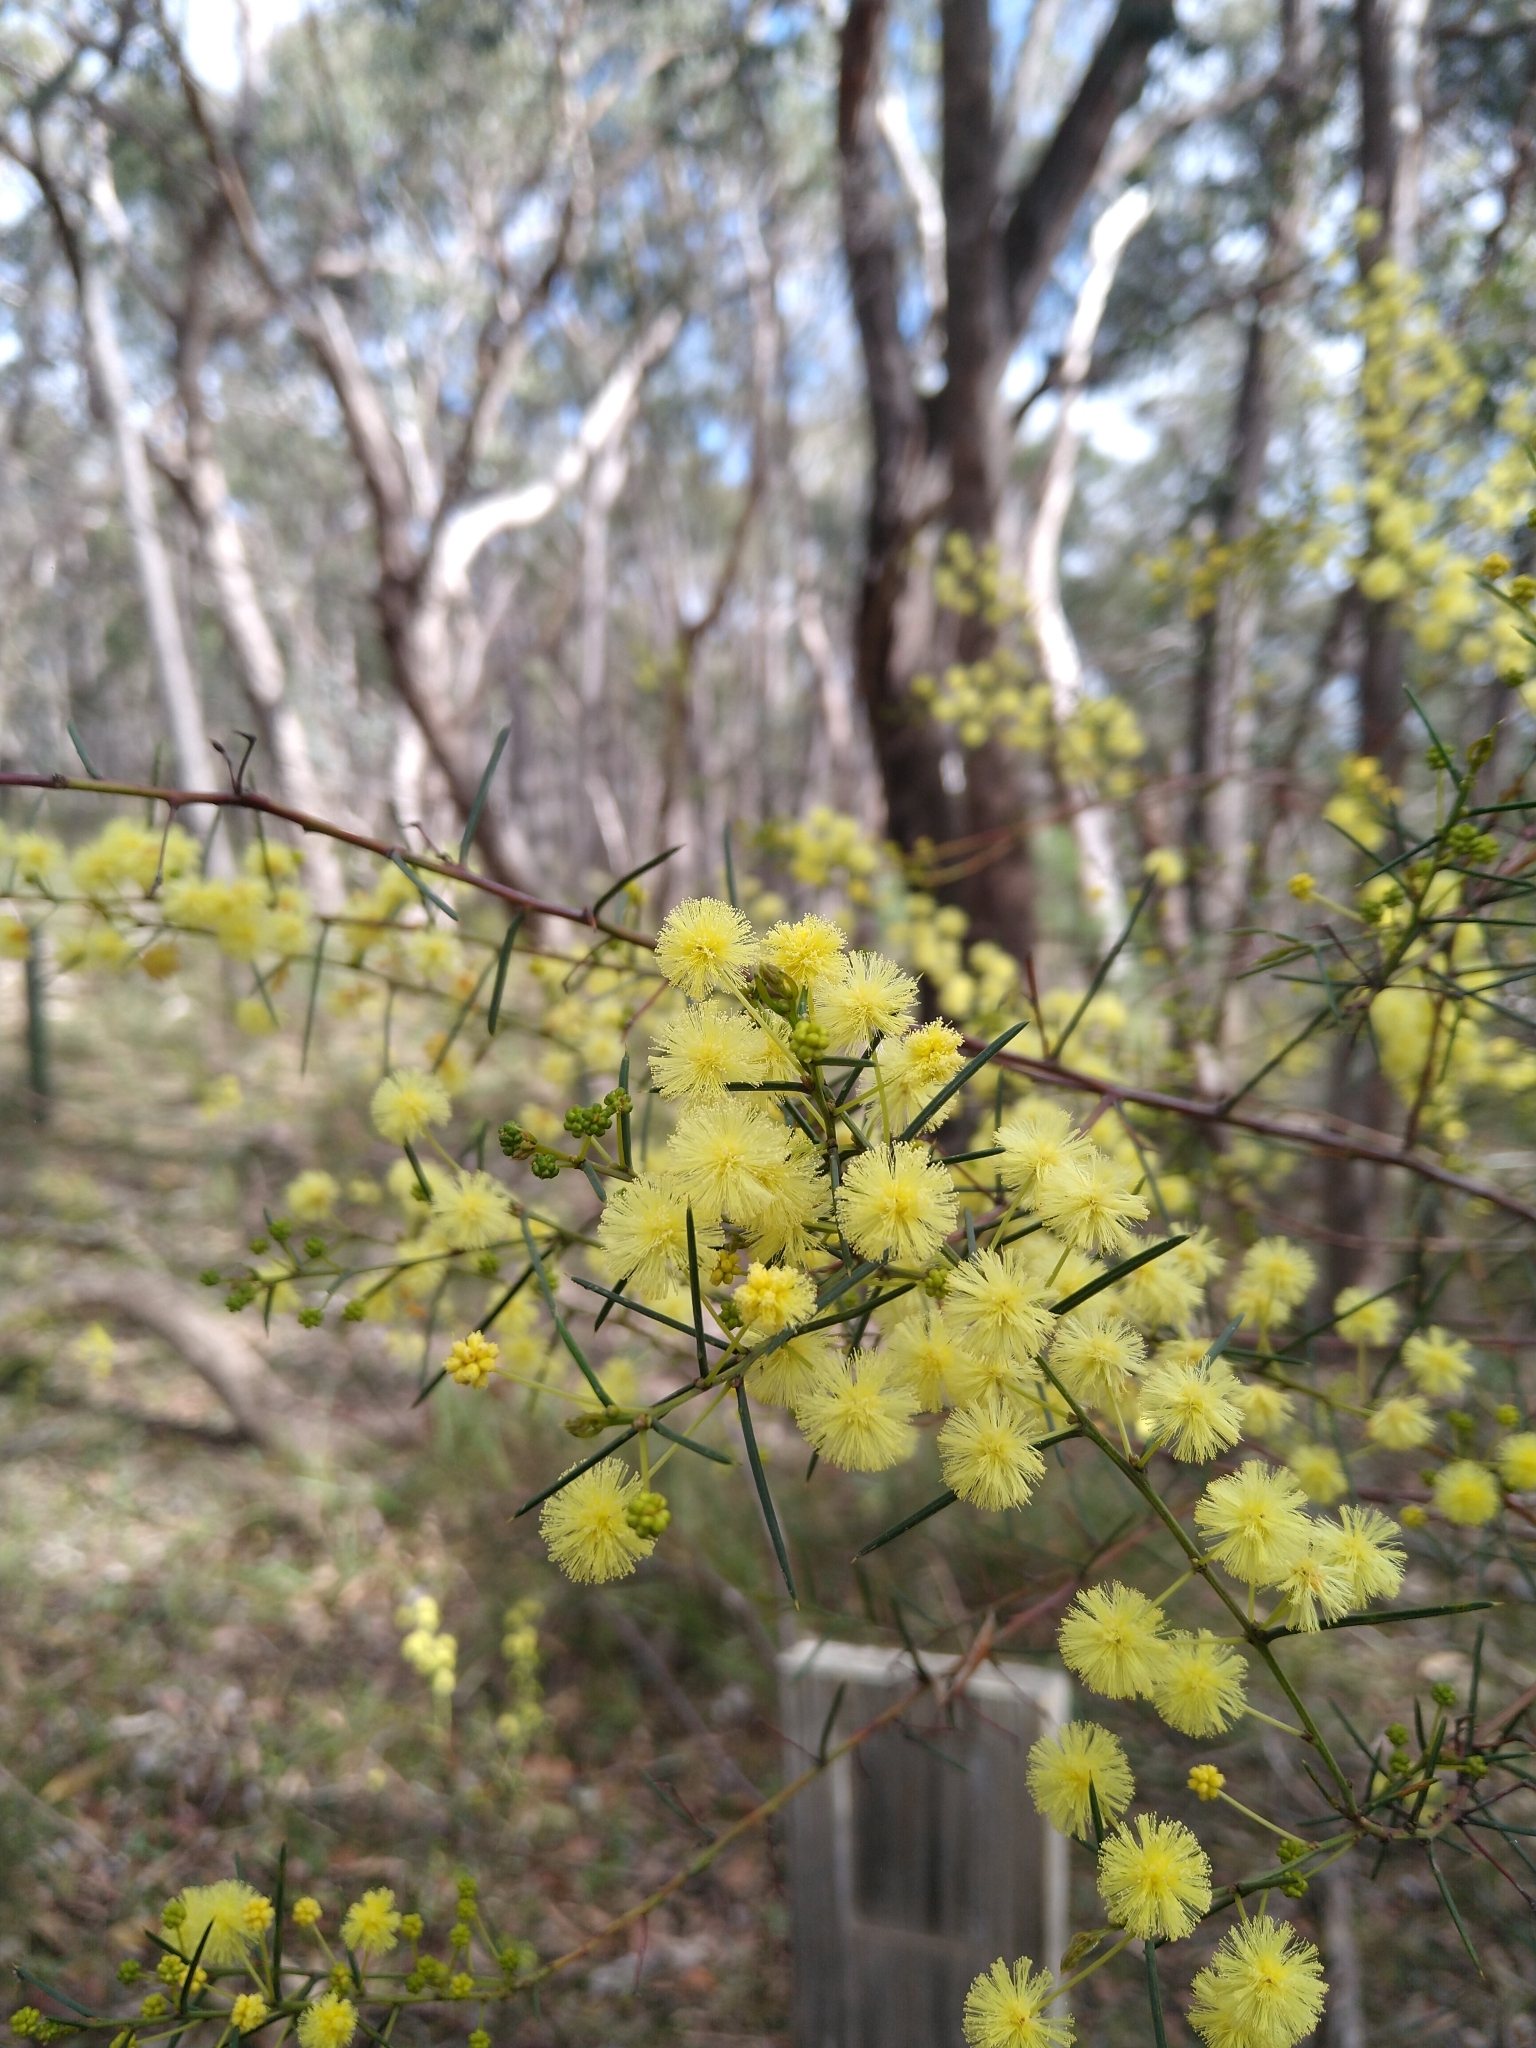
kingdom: Plantae
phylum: Tracheophyta
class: Magnoliopsida
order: Fabales
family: Fabaceae
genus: Acacia
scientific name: Acacia genistifolia
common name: Early wattle
